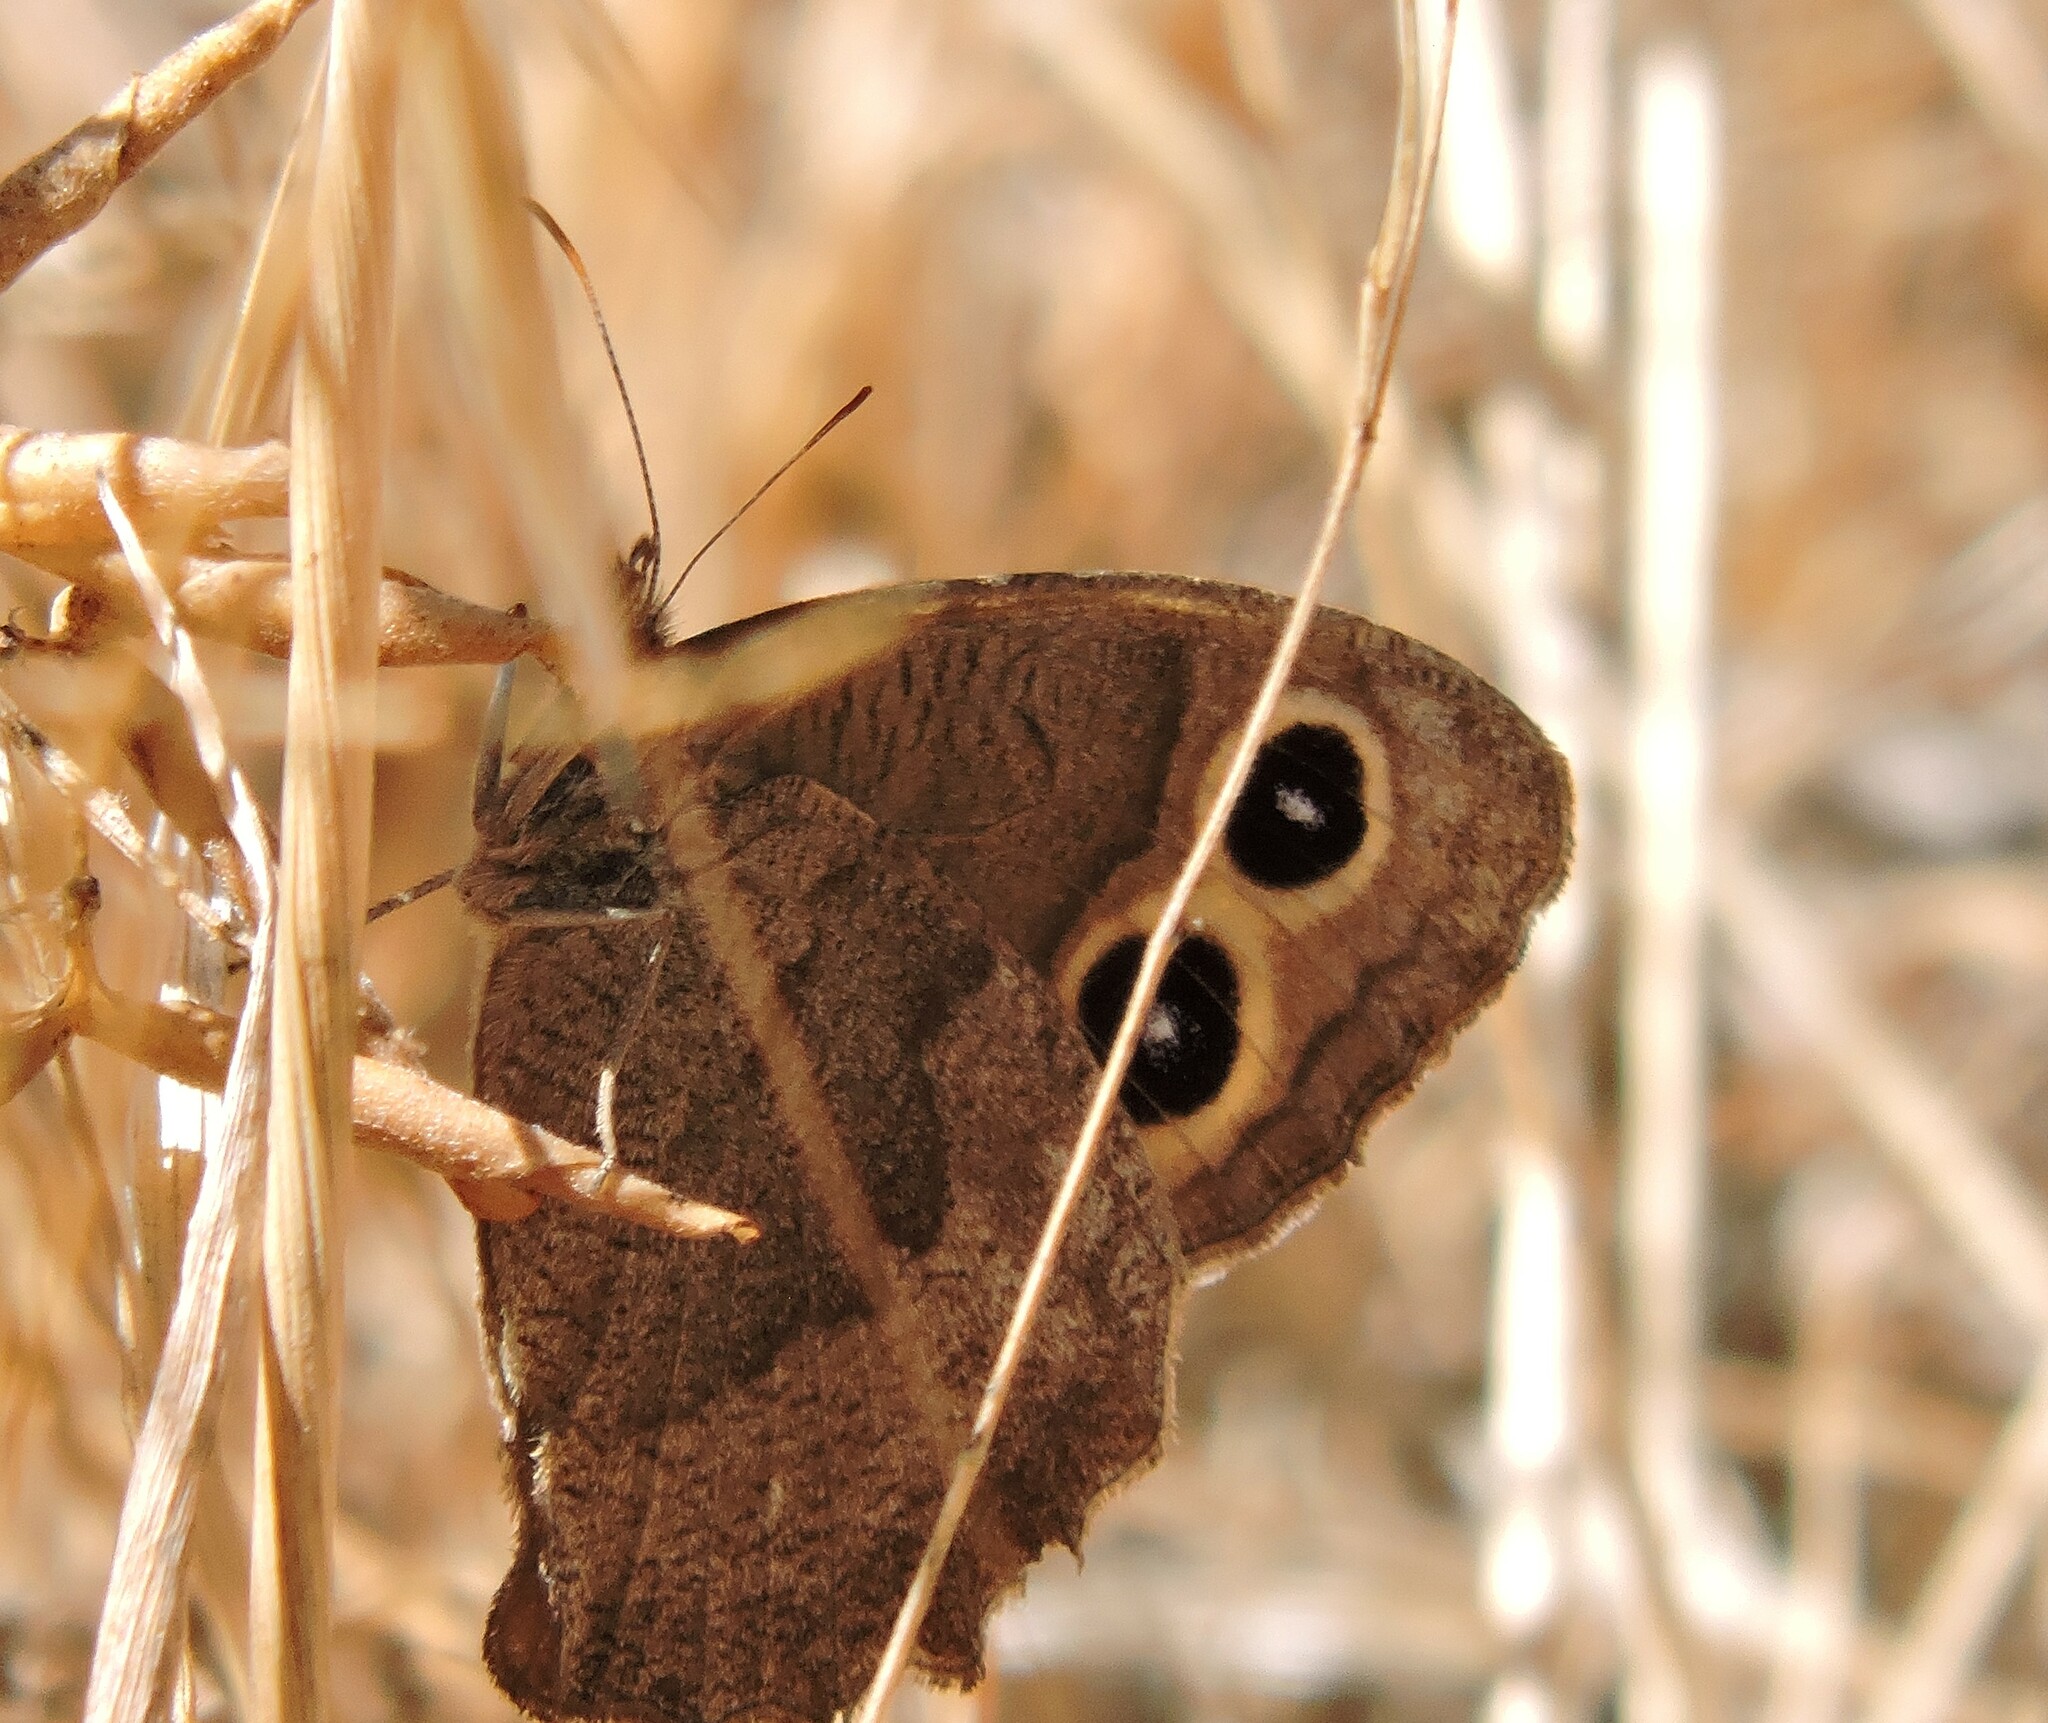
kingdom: Animalia
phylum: Arthropoda
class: Insecta
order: Lepidoptera
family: Nymphalidae
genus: Cercyonis
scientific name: Cercyonis pegala
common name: Common wood-nymph
